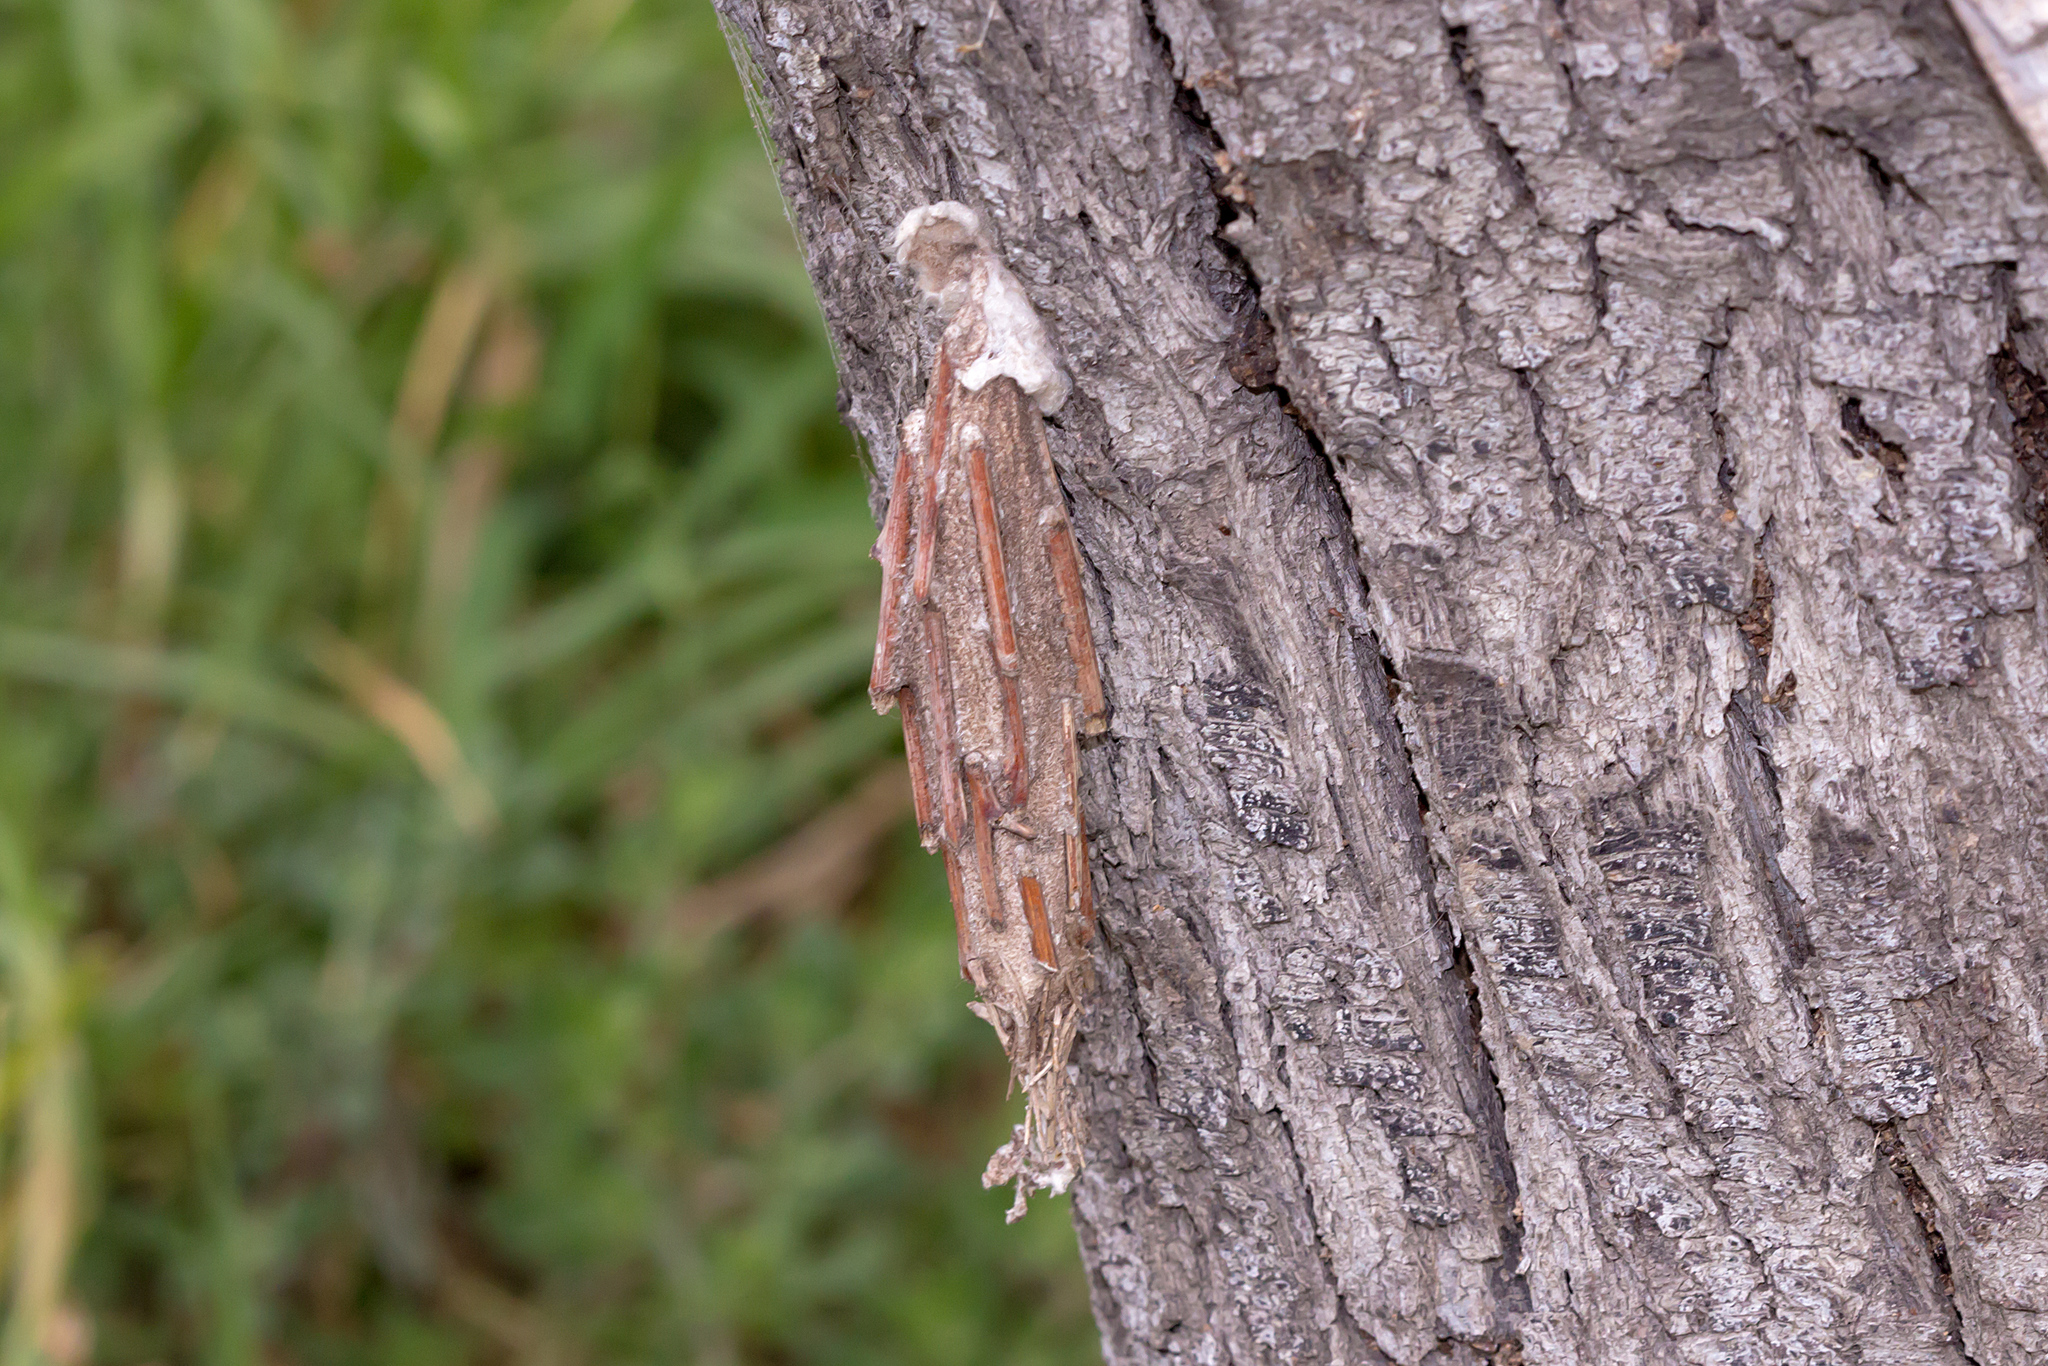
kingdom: Animalia
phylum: Arthropoda
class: Insecta
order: Lepidoptera
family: Psychidae
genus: Metura
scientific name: Metura elongatus
